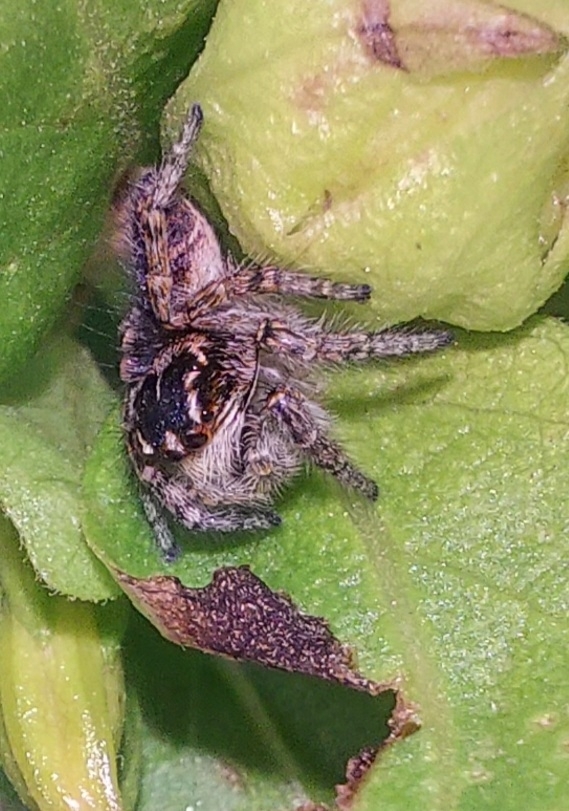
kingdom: Animalia
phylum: Arthropoda
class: Arachnida
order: Araneae
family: Salticidae
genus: Philaeus
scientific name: Philaeus chrysops
